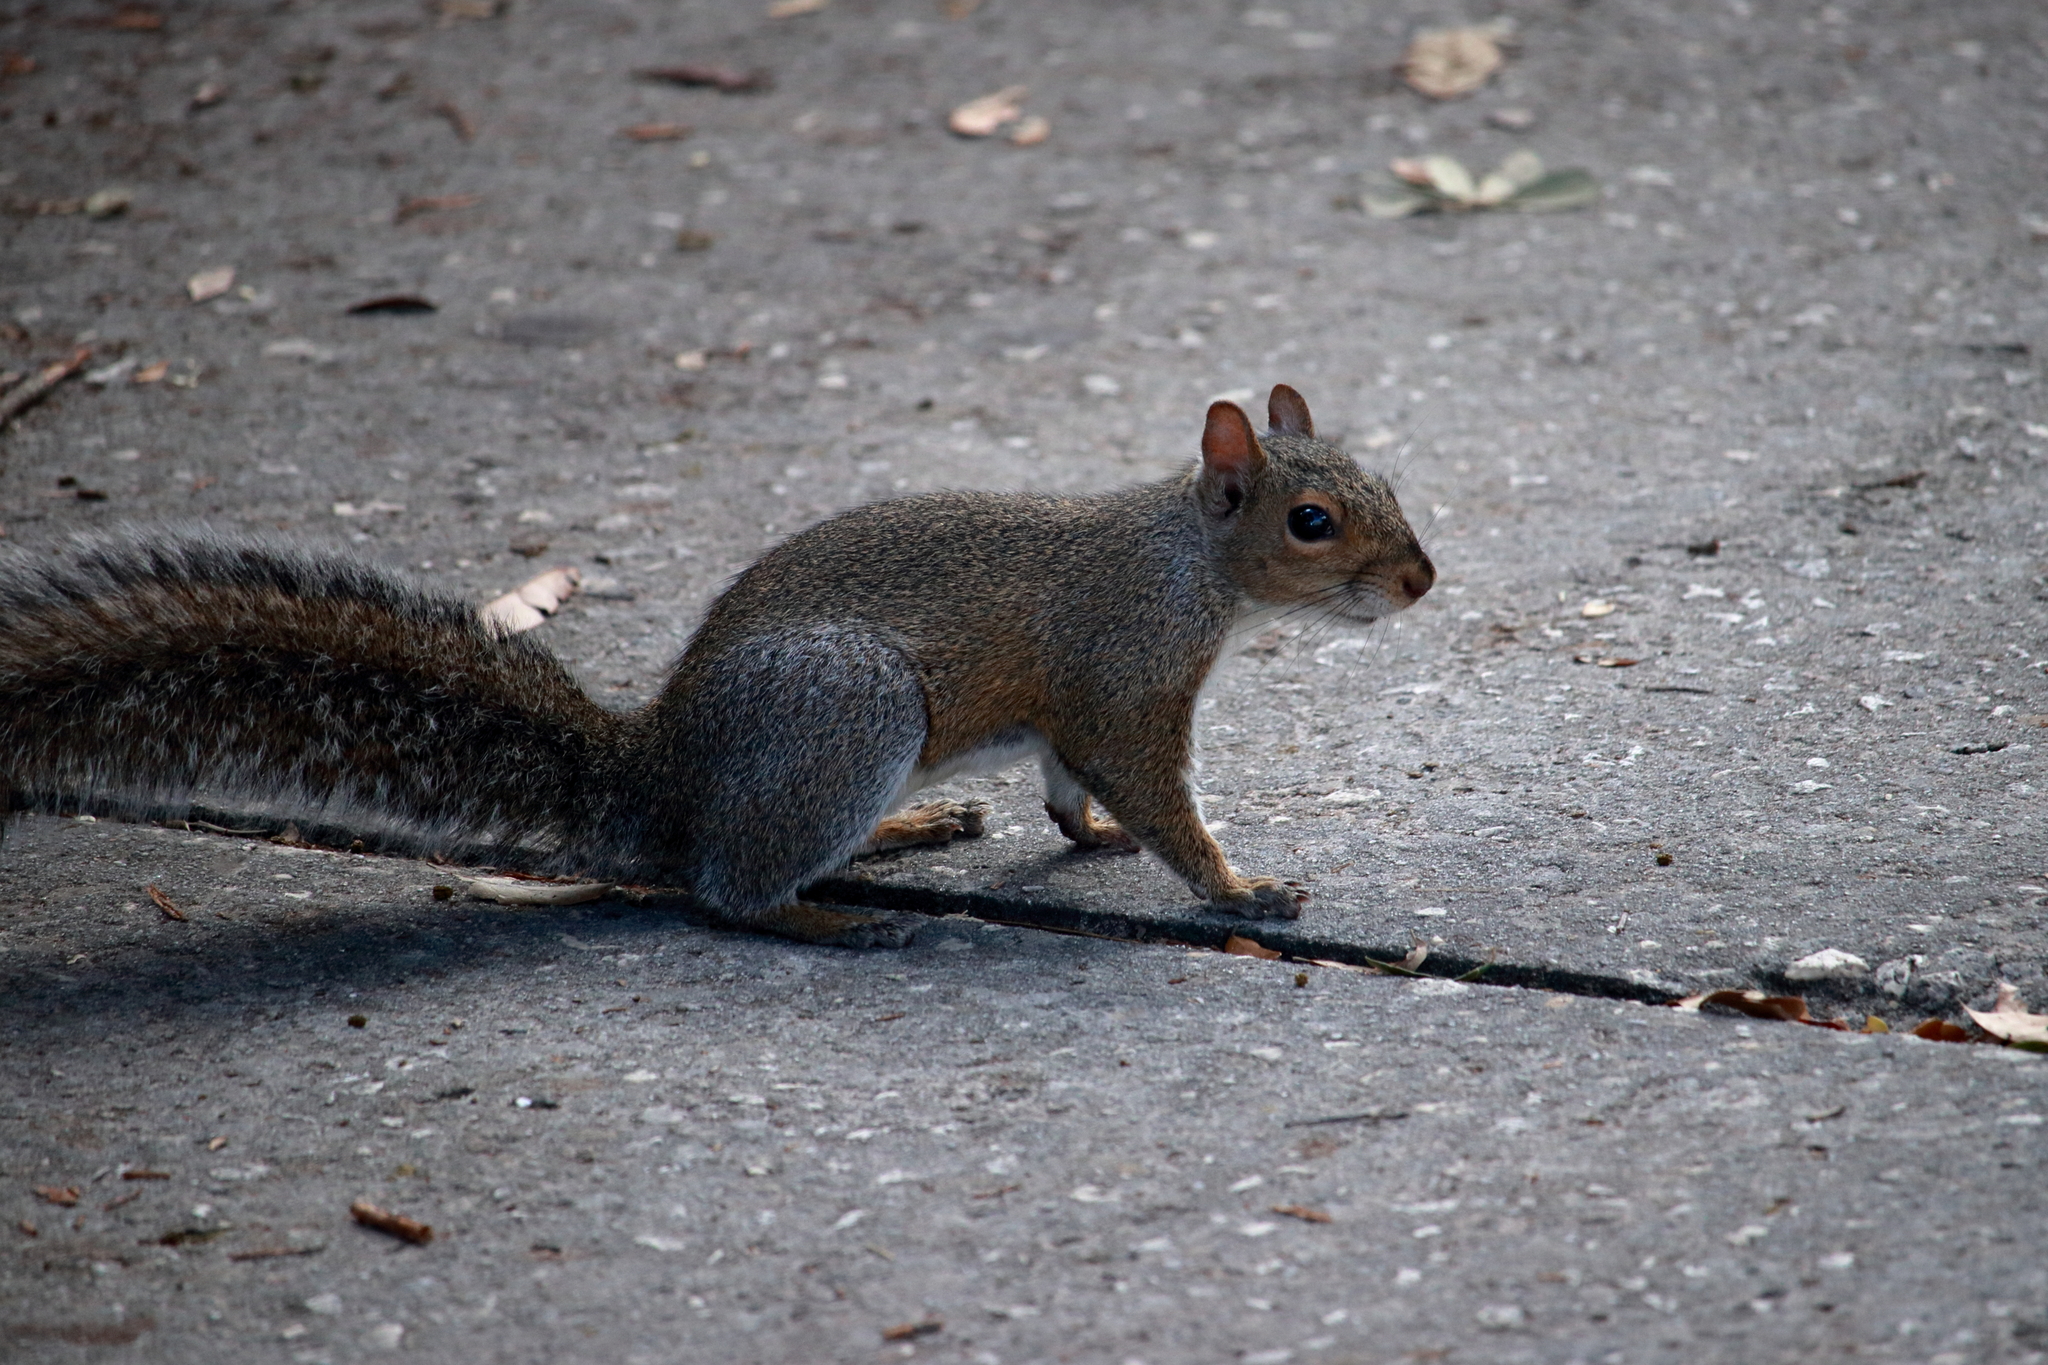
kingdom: Animalia
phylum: Chordata
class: Mammalia
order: Rodentia
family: Sciuridae
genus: Sciurus
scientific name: Sciurus carolinensis
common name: Eastern gray squirrel
